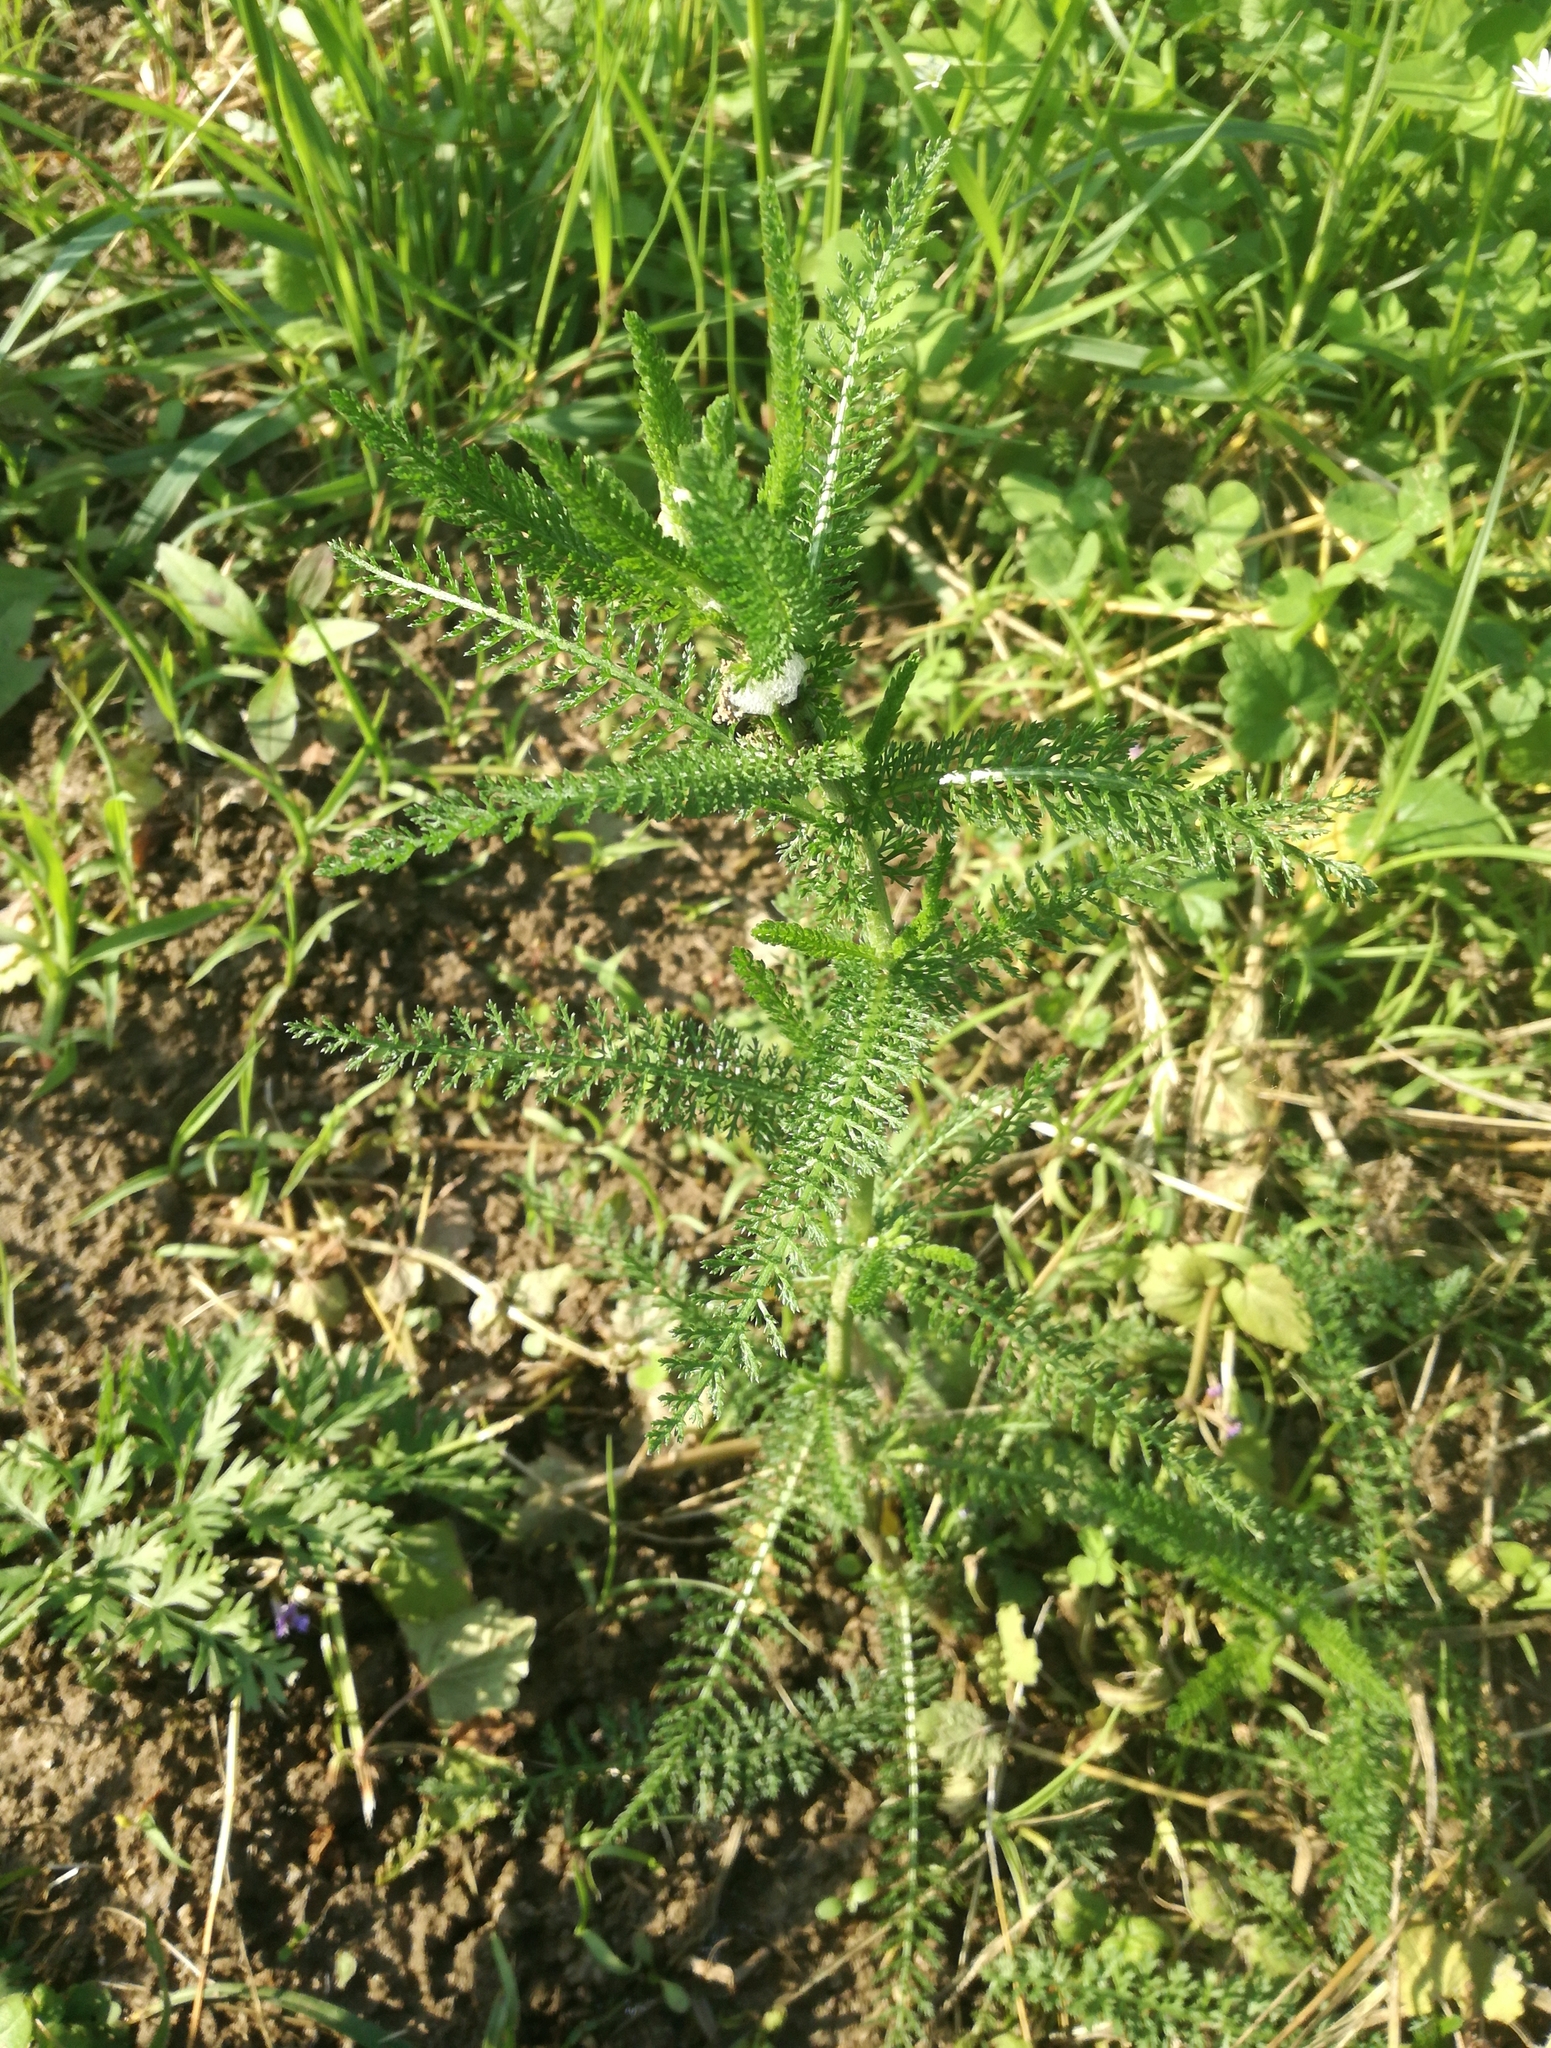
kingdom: Plantae
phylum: Tracheophyta
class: Magnoliopsida
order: Asterales
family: Asteraceae
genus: Achillea
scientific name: Achillea millefolium
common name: Yarrow
